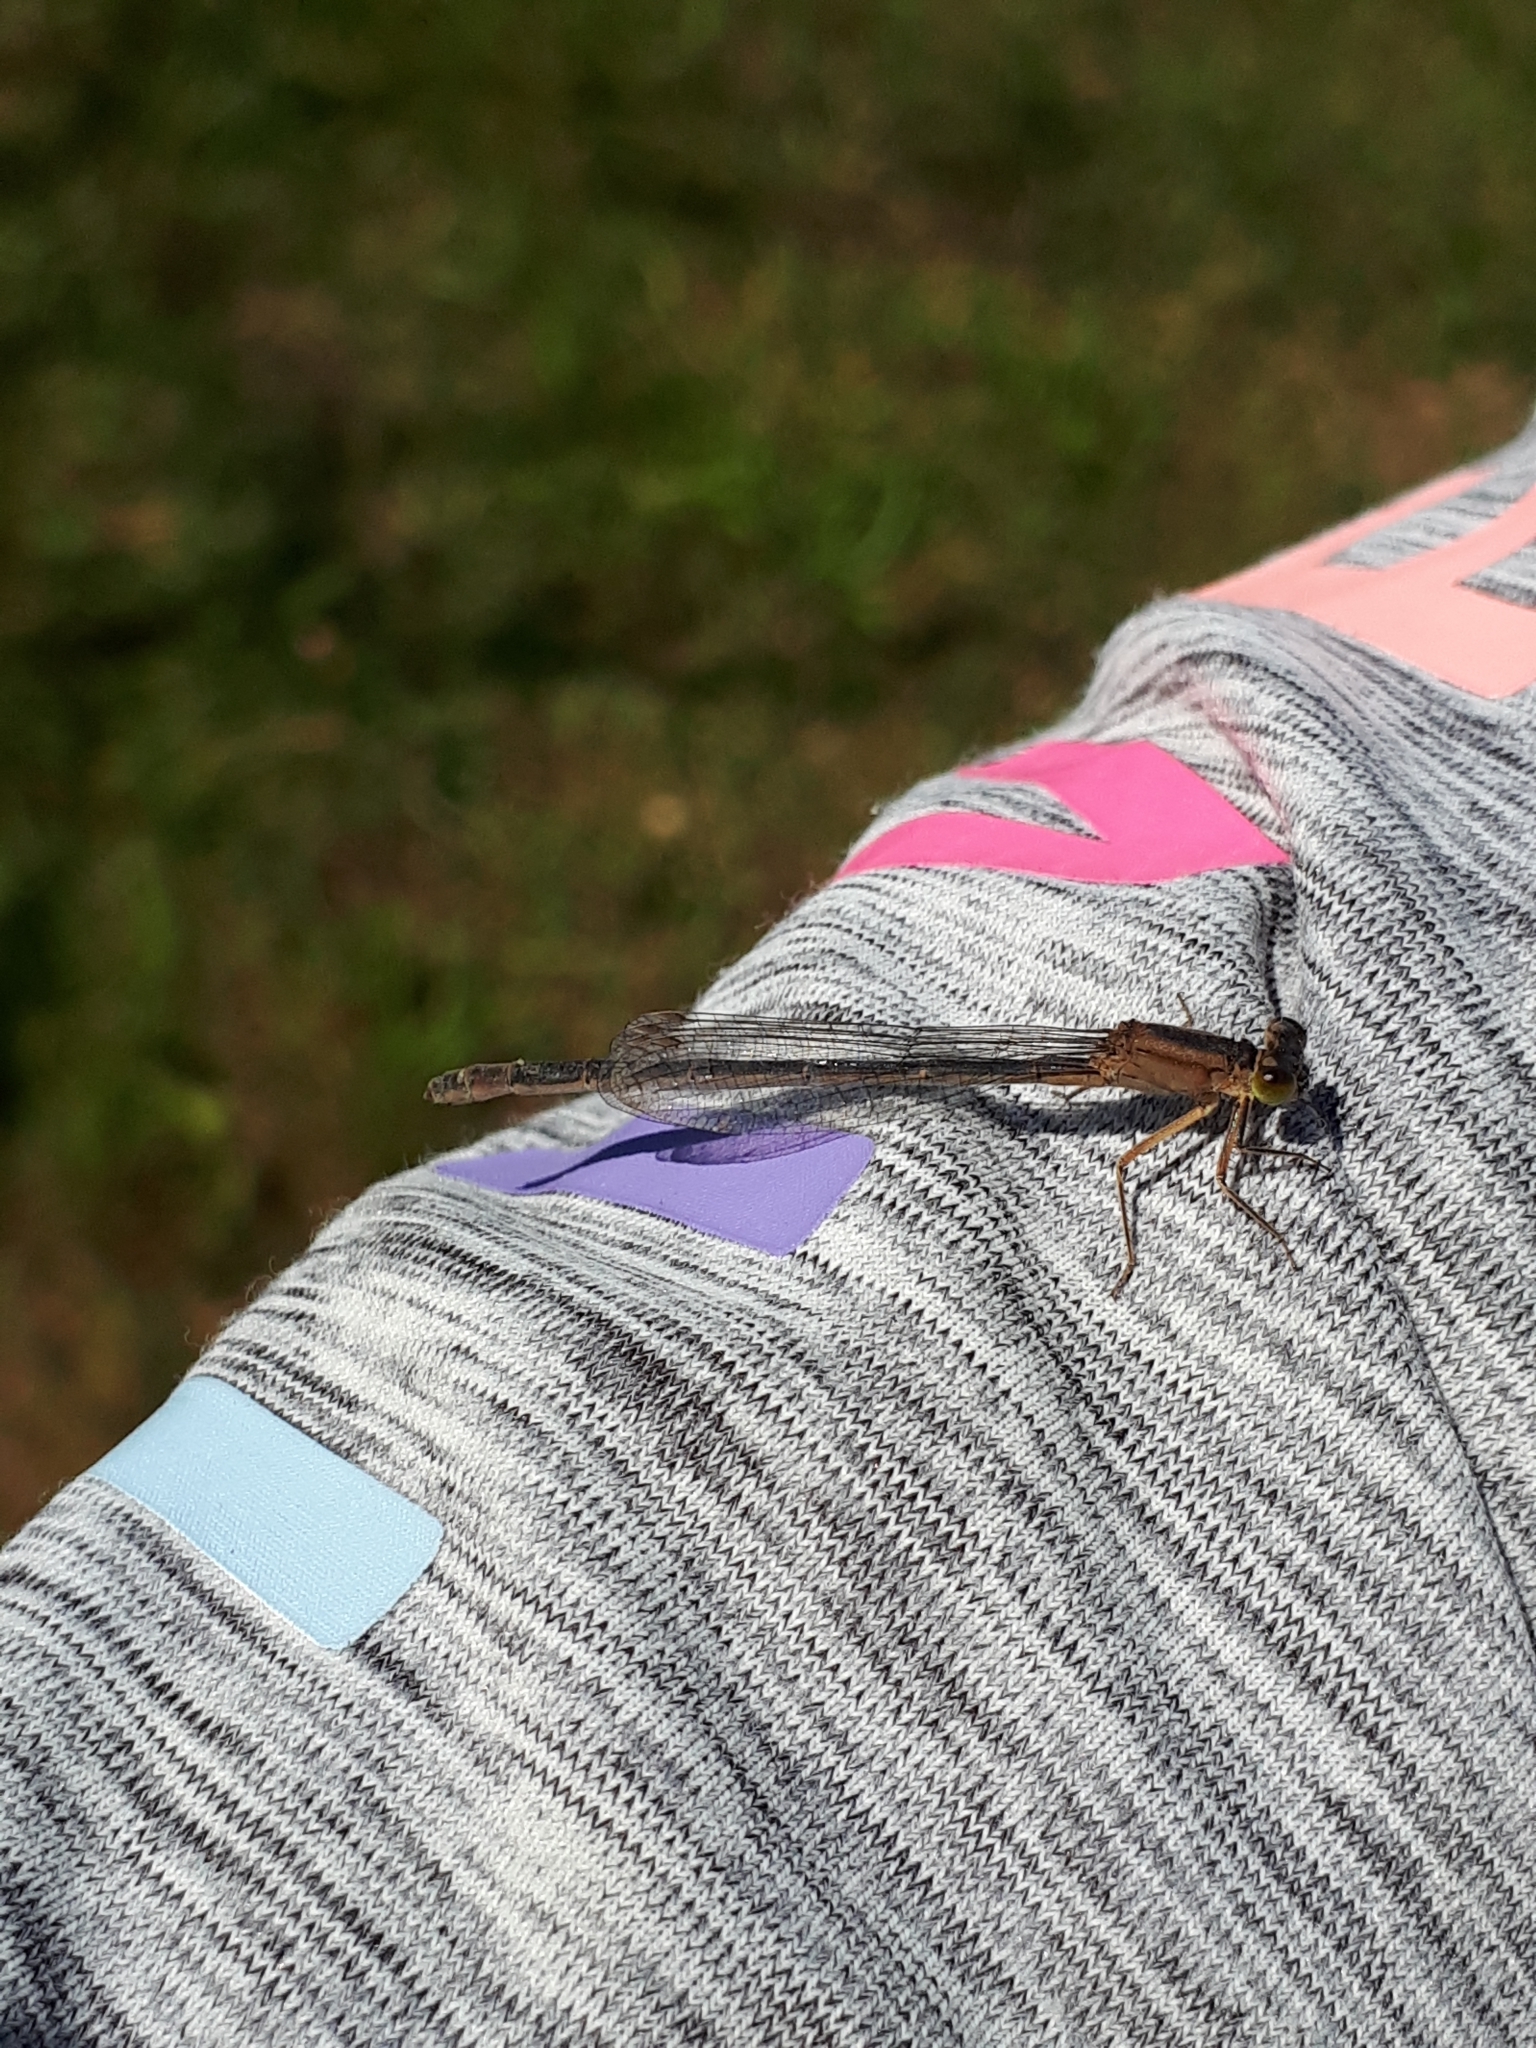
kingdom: Animalia
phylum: Arthropoda
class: Insecta
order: Odonata
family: Coenagrionidae
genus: Ischnura
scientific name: Ischnura elegans
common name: Blue-tailed damselfly
